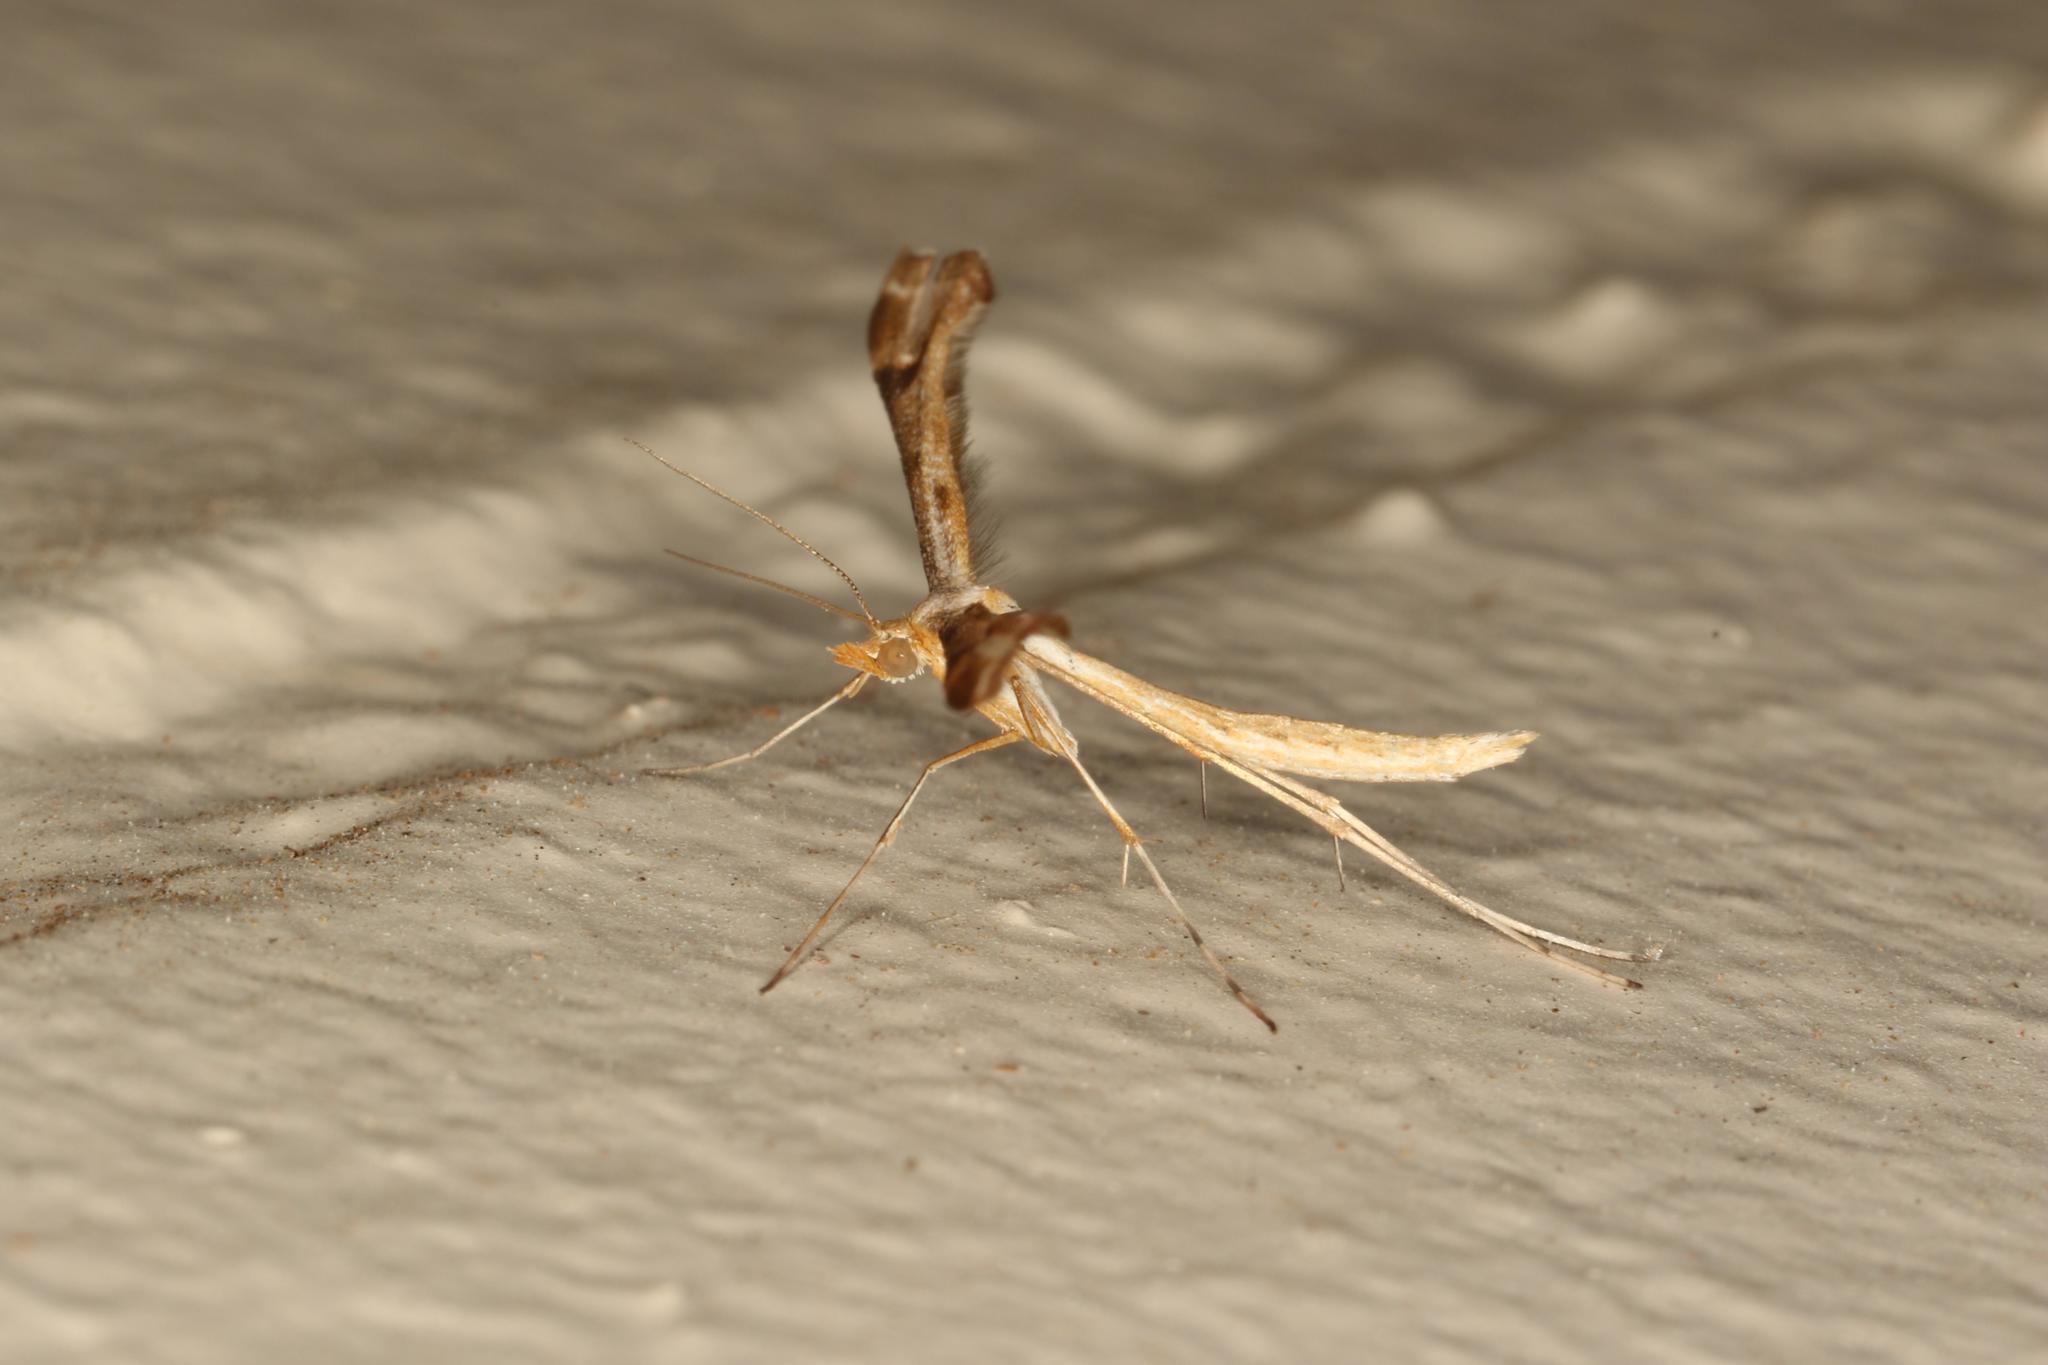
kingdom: Animalia
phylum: Arthropoda
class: Insecta
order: Lepidoptera
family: Pterophoridae
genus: Sinpunctiptilia
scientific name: Sinpunctiptilia emissalis
